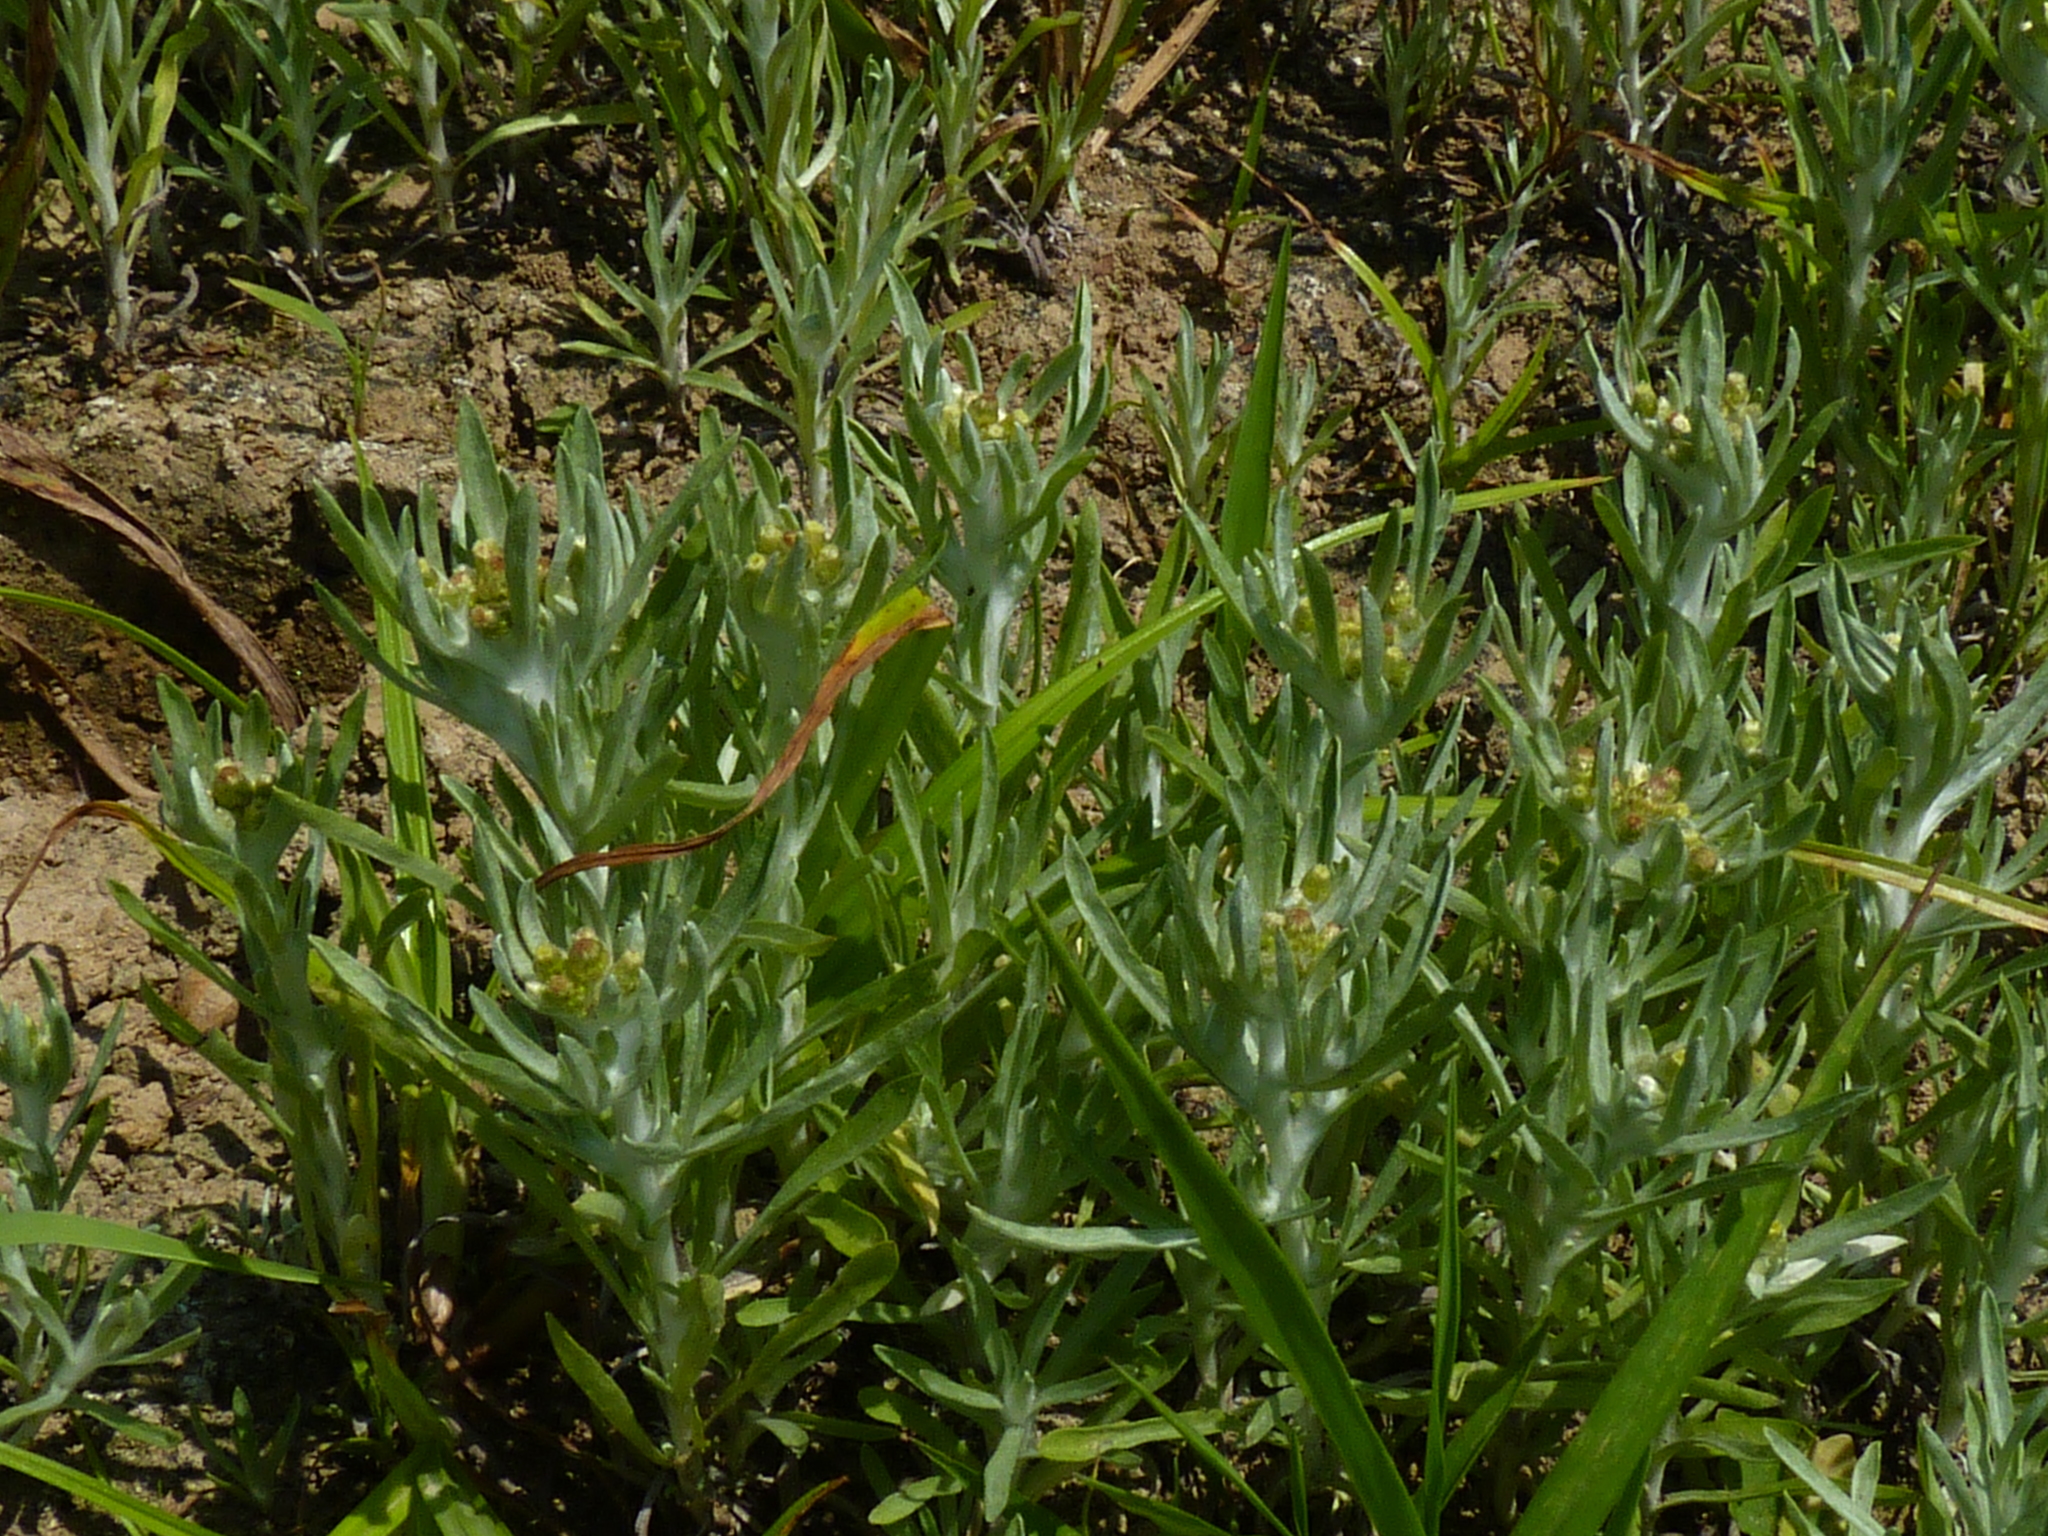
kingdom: Plantae
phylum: Tracheophyta
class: Magnoliopsida
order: Asterales
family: Asteraceae
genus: Gnaphalium
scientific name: Gnaphalium uliginosum
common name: Marsh cudweed
